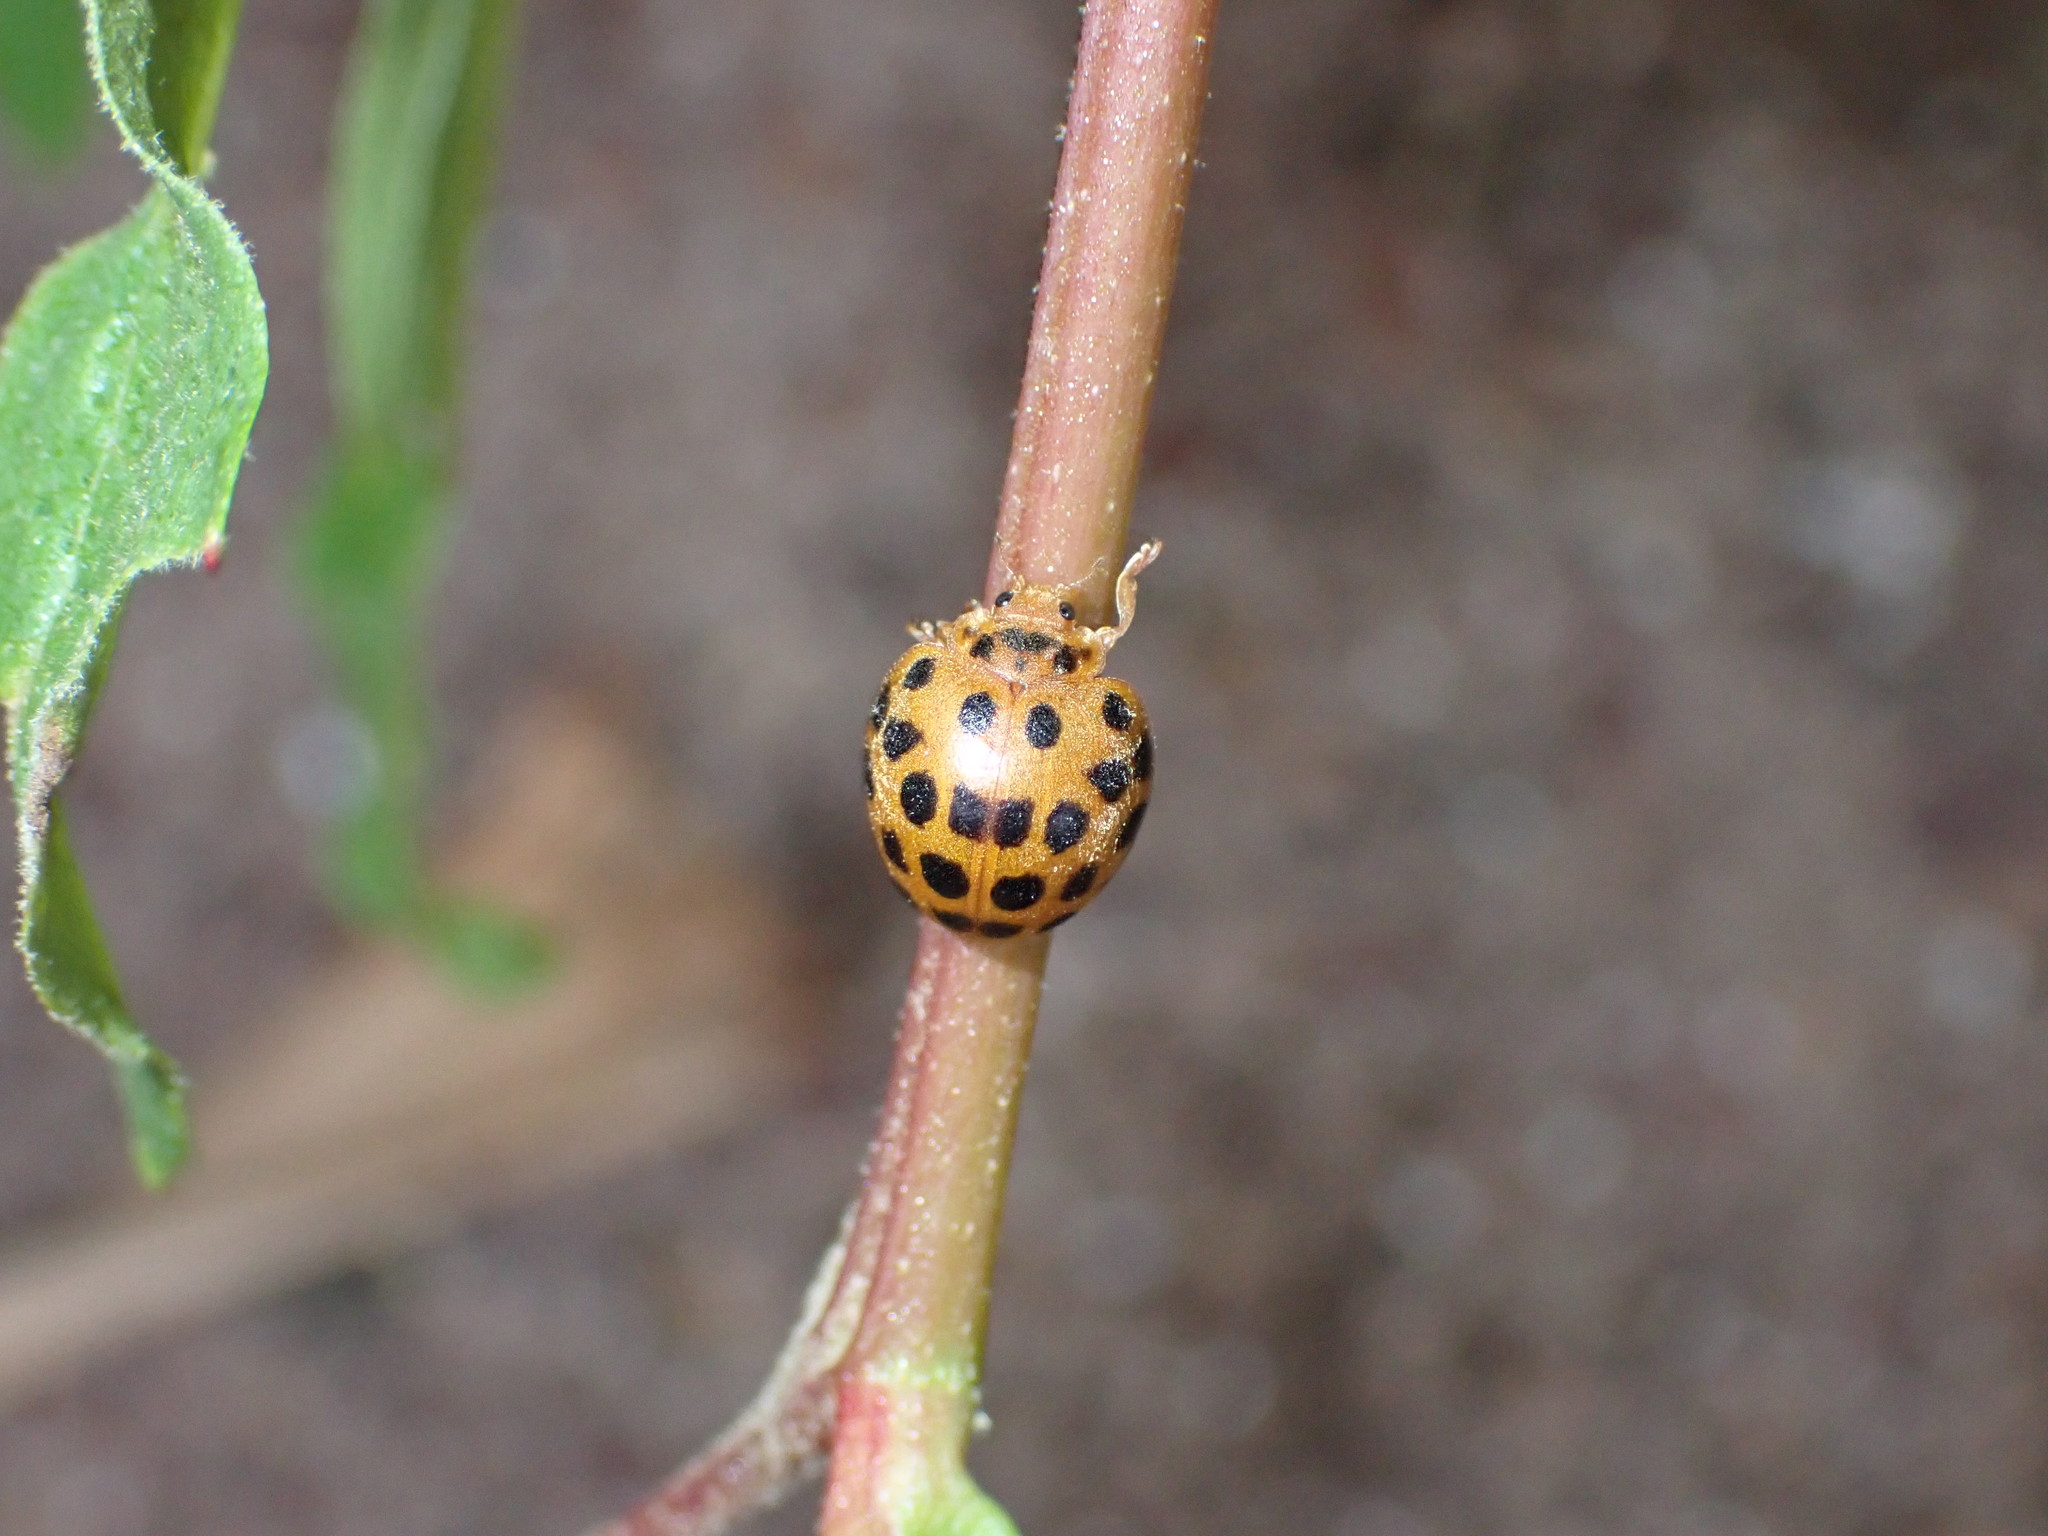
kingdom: Animalia
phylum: Arthropoda
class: Insecta
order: Coleoptera
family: Coccinellidae
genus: Henosepilachna
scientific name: Henosepilachna vigintioctopunctata
